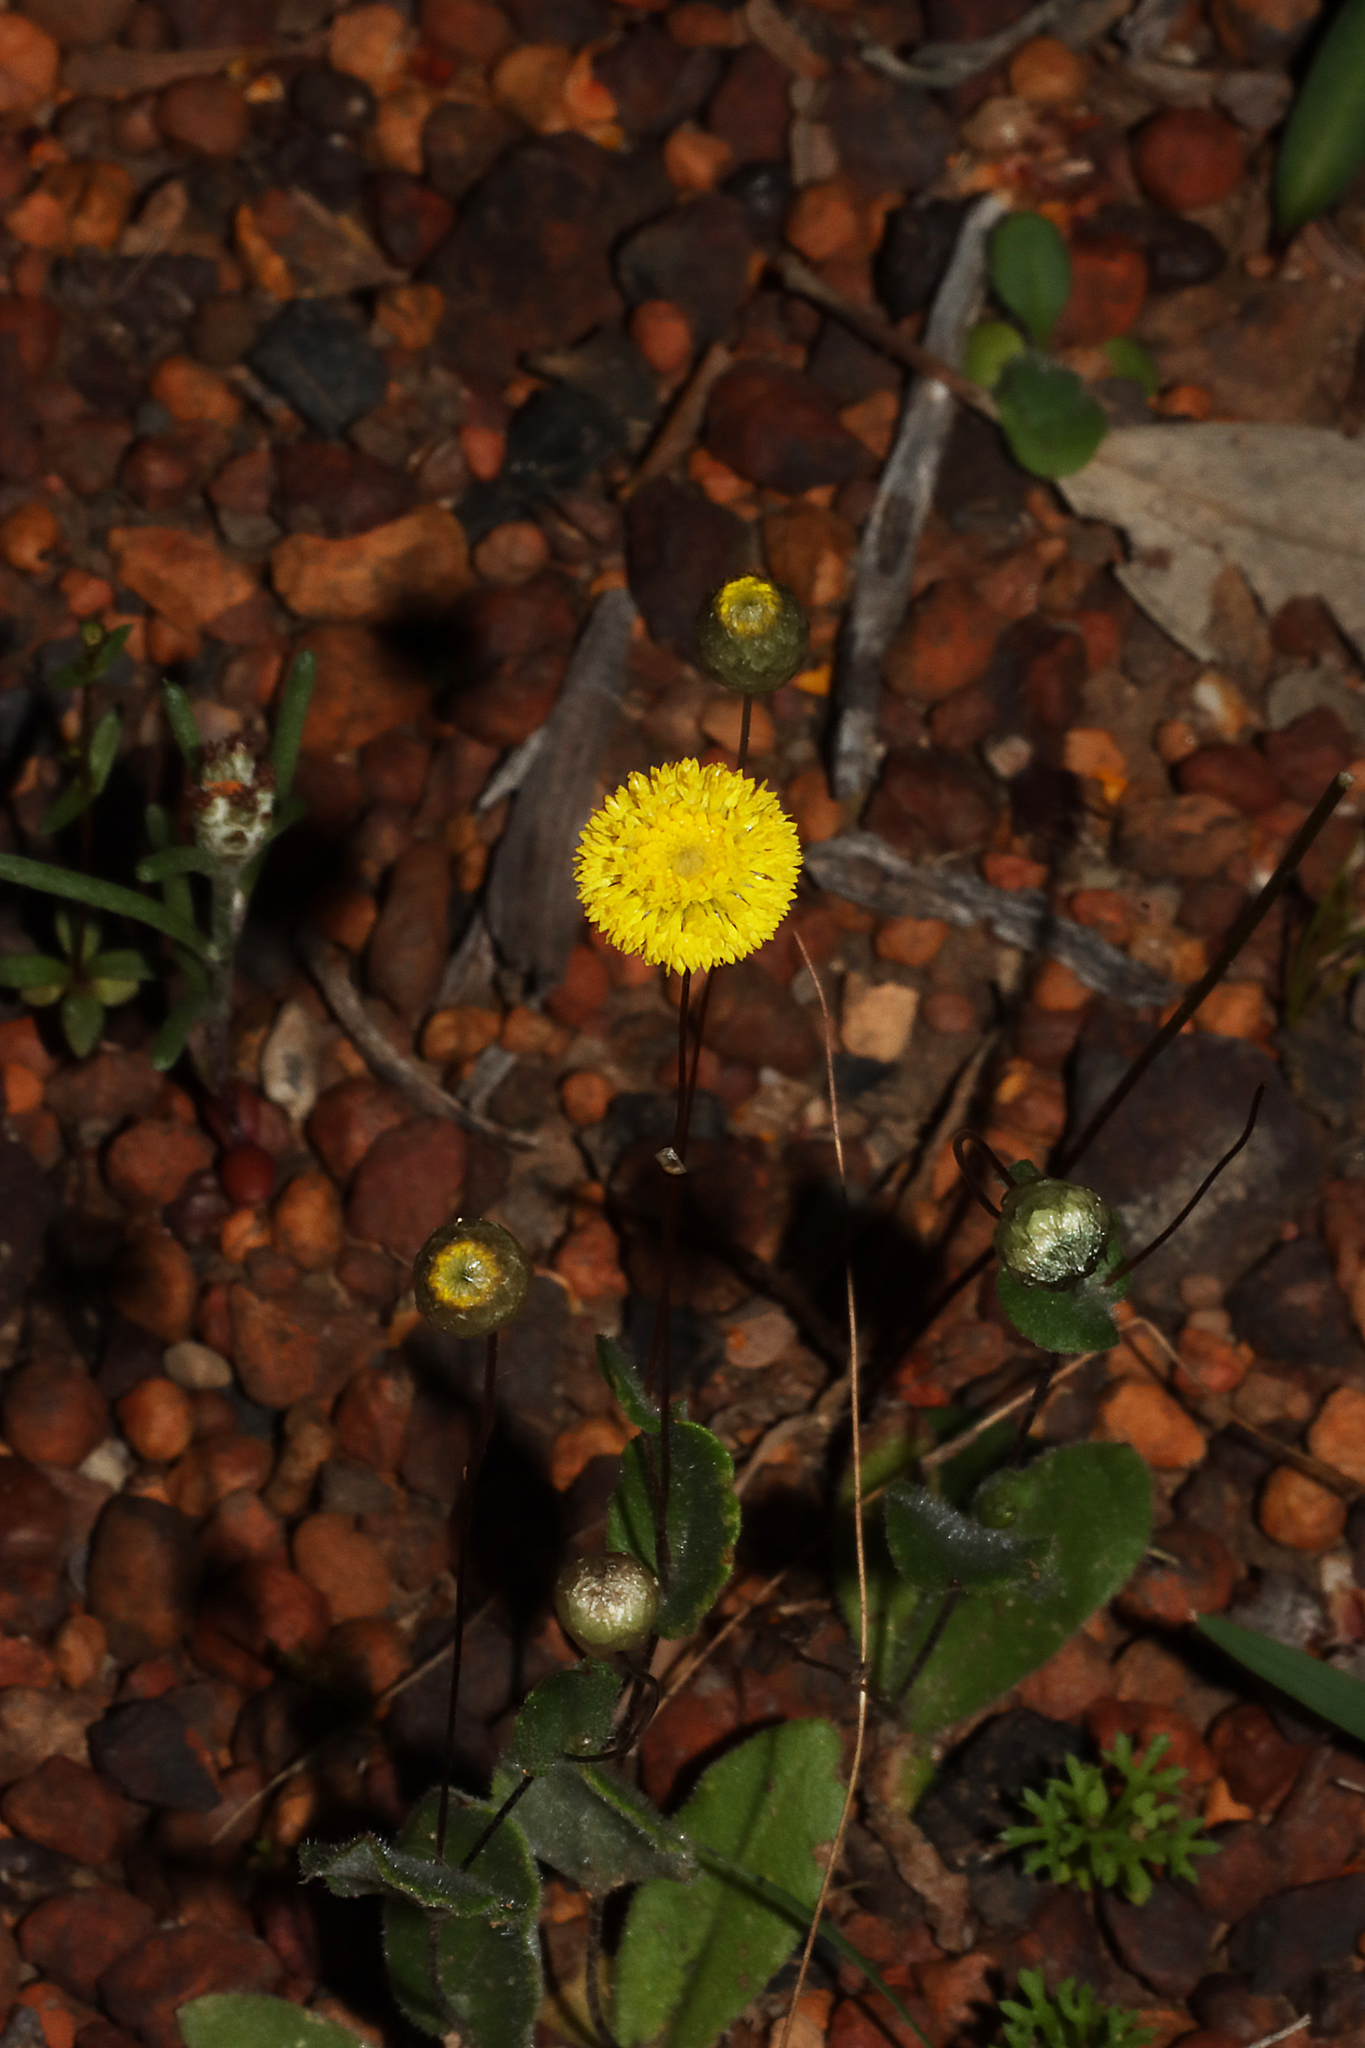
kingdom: Plantae
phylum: Tracheophyta
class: Magnoliopsida
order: Asterales
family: Asteraceae
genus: Panaetia
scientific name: Panaetia lessonii
